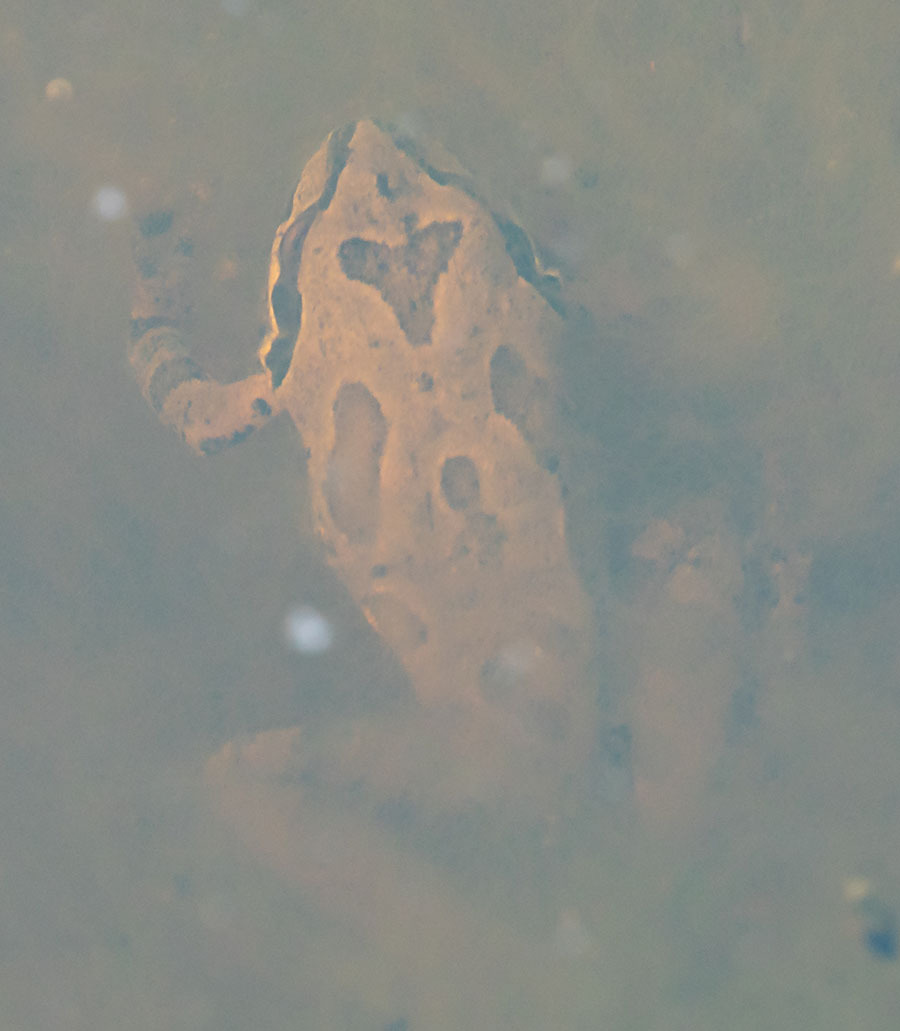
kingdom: Animalia
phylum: Chordata
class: Amphibia
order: Anura
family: Hylidae
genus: Pseudacris
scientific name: Pseudacris regilla
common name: Pacific chorus frog
